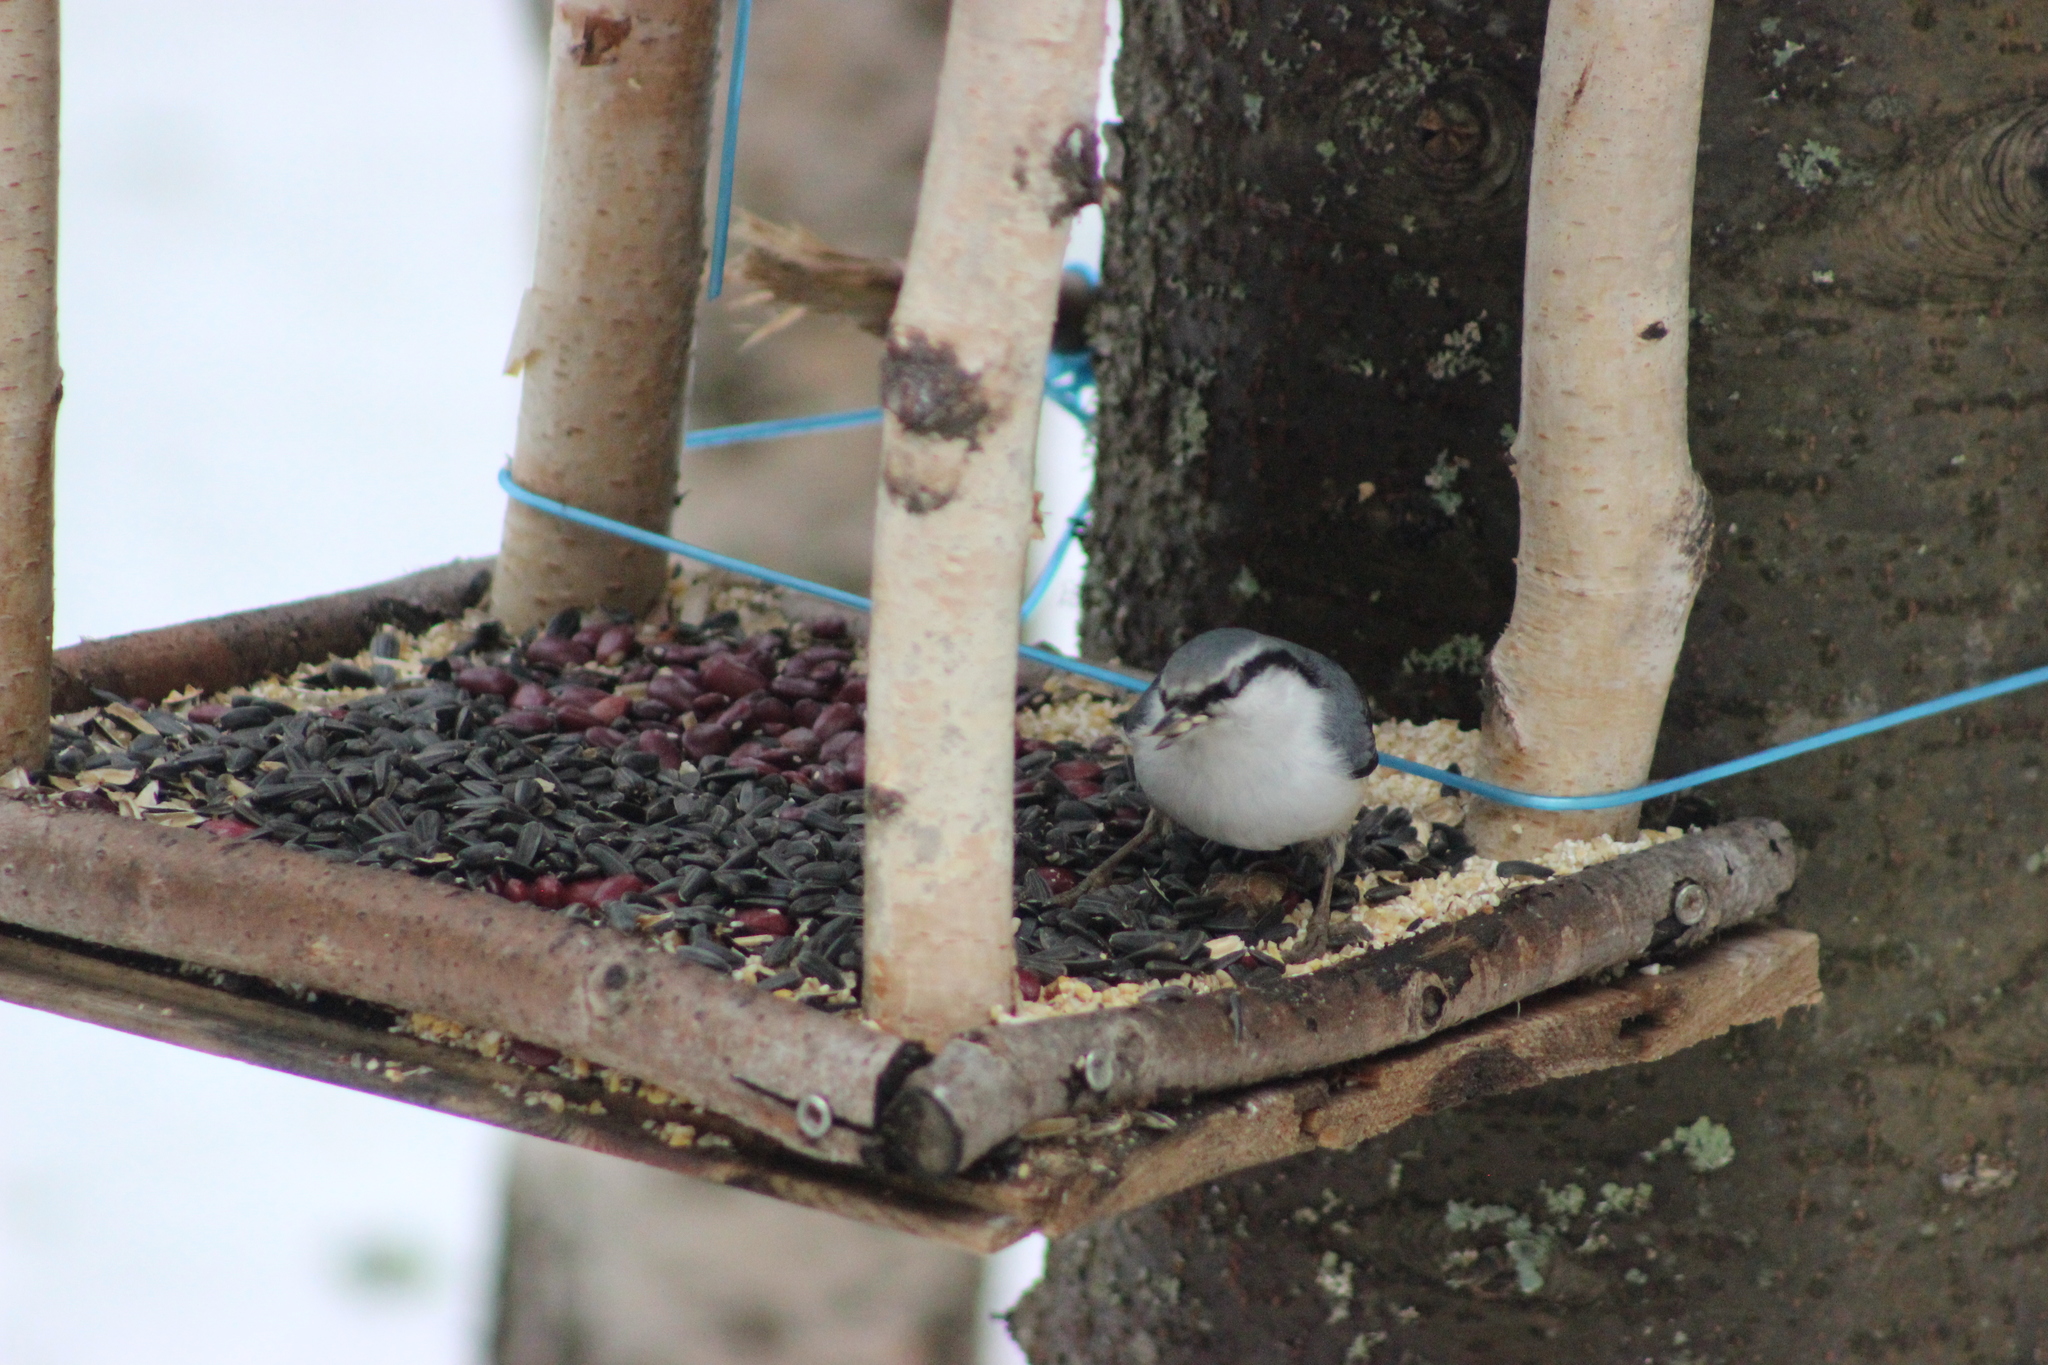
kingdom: Animalia
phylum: Chordata
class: Aves
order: Passeriformes
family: Sittidae
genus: Sitta
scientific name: Sitta europaea
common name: Eurasian nuthatch
